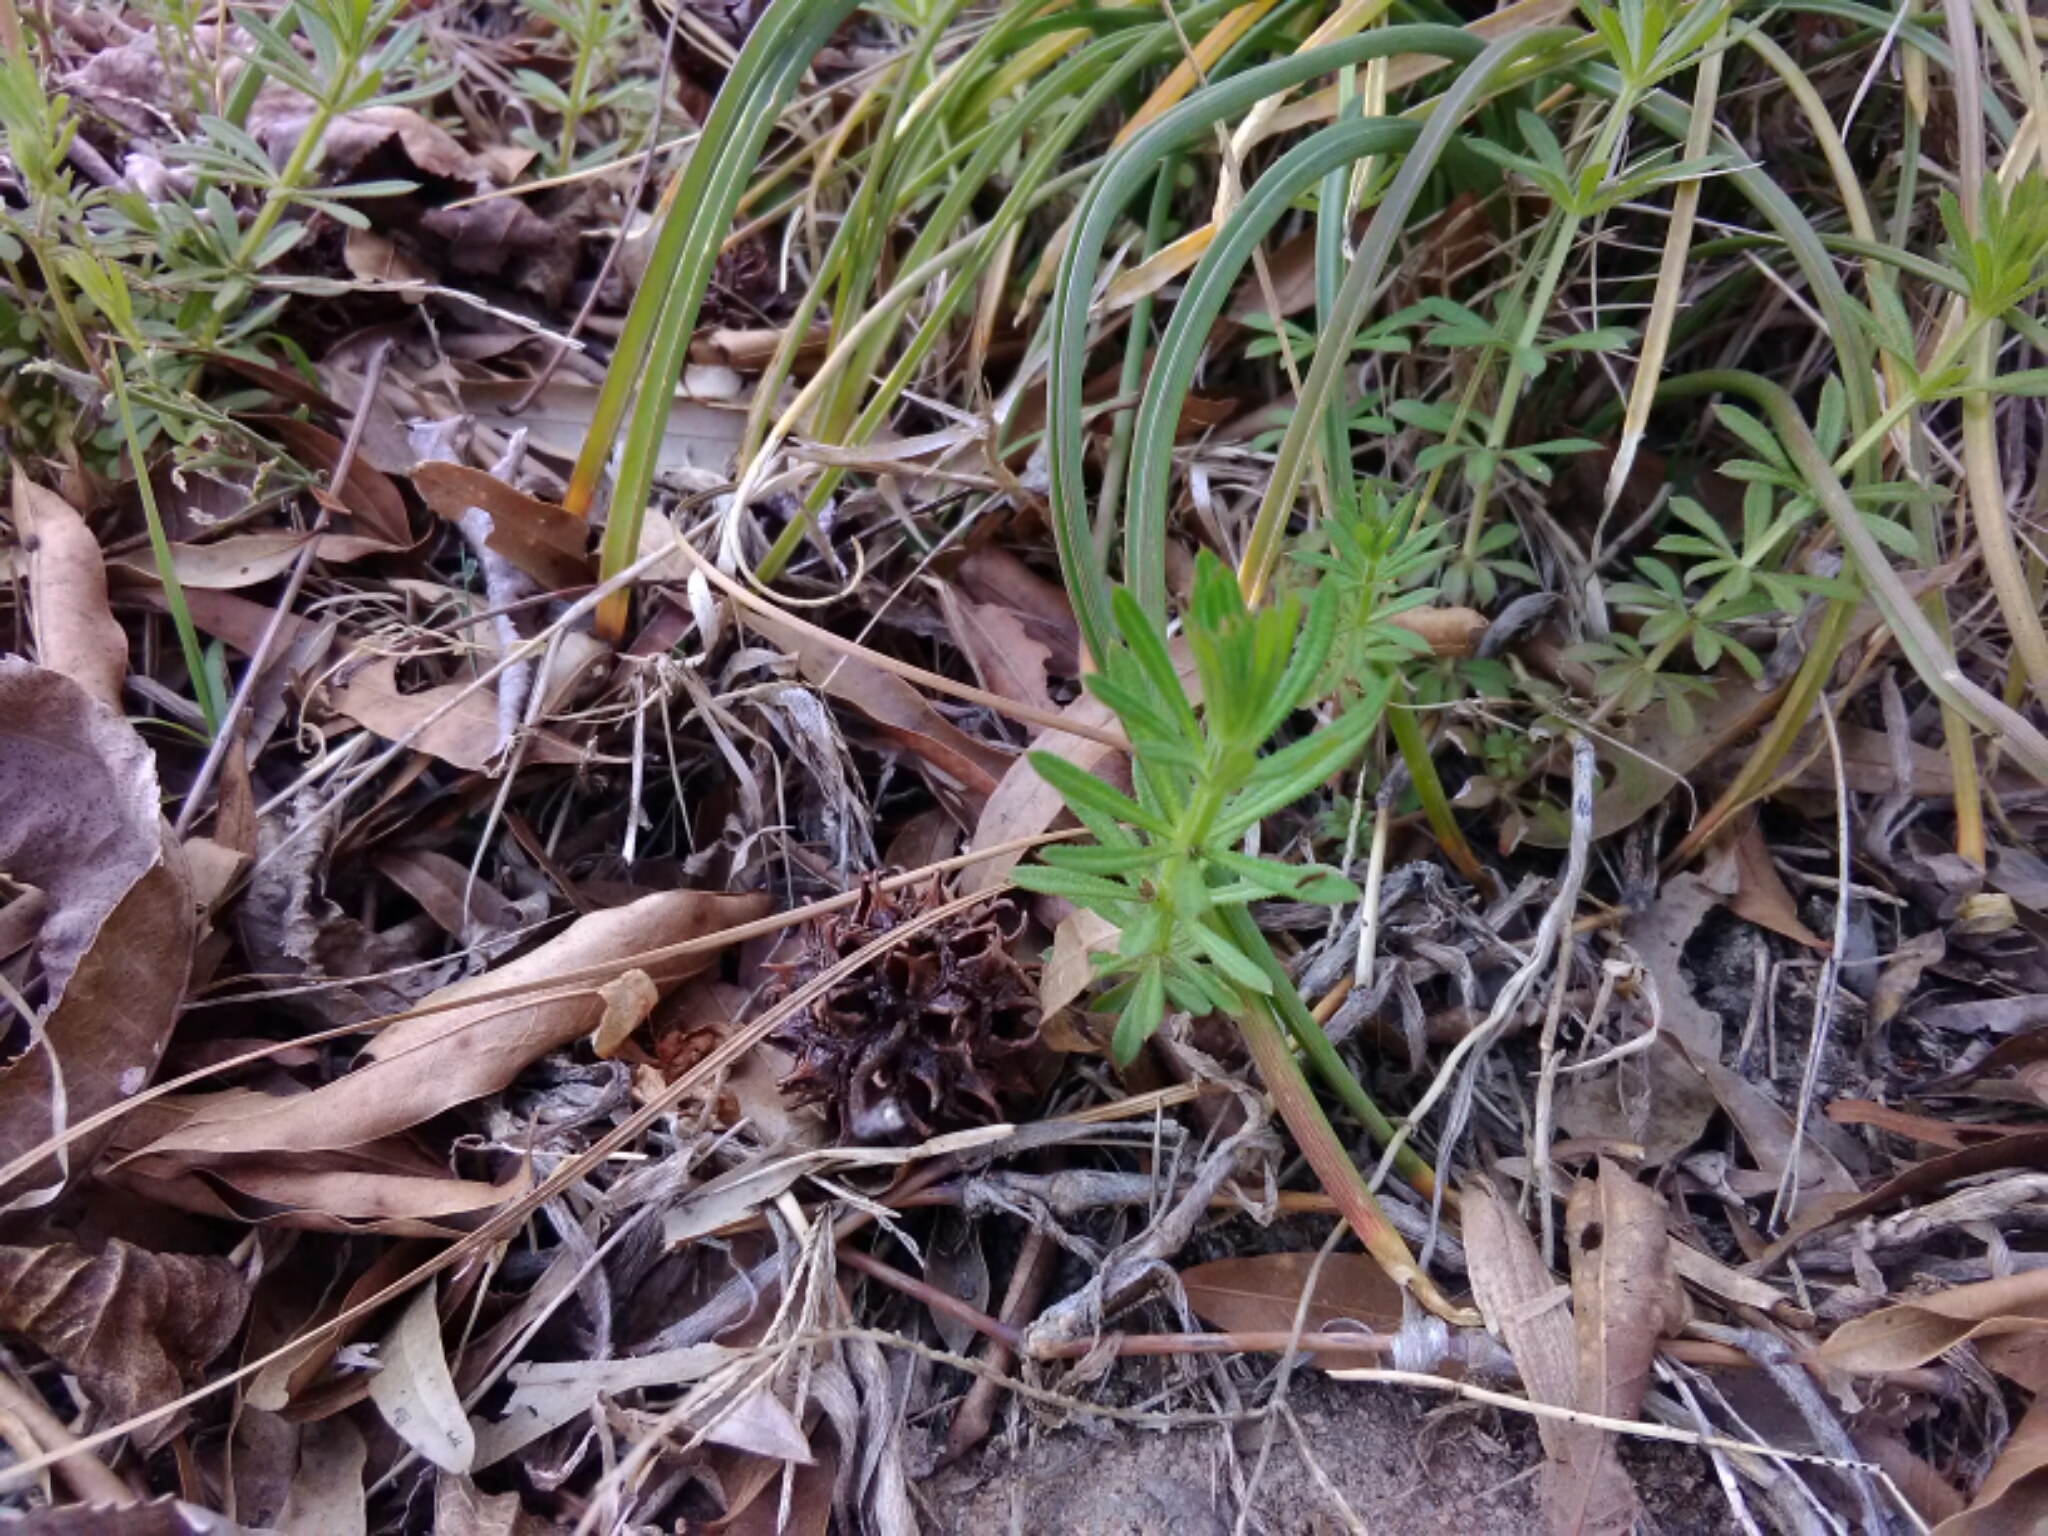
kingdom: Plantae
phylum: Tracheophyta
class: Magnoliopsida
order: Gentianales
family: Rubiaceae
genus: Galium
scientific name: Galium aparine
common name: Cleavers
